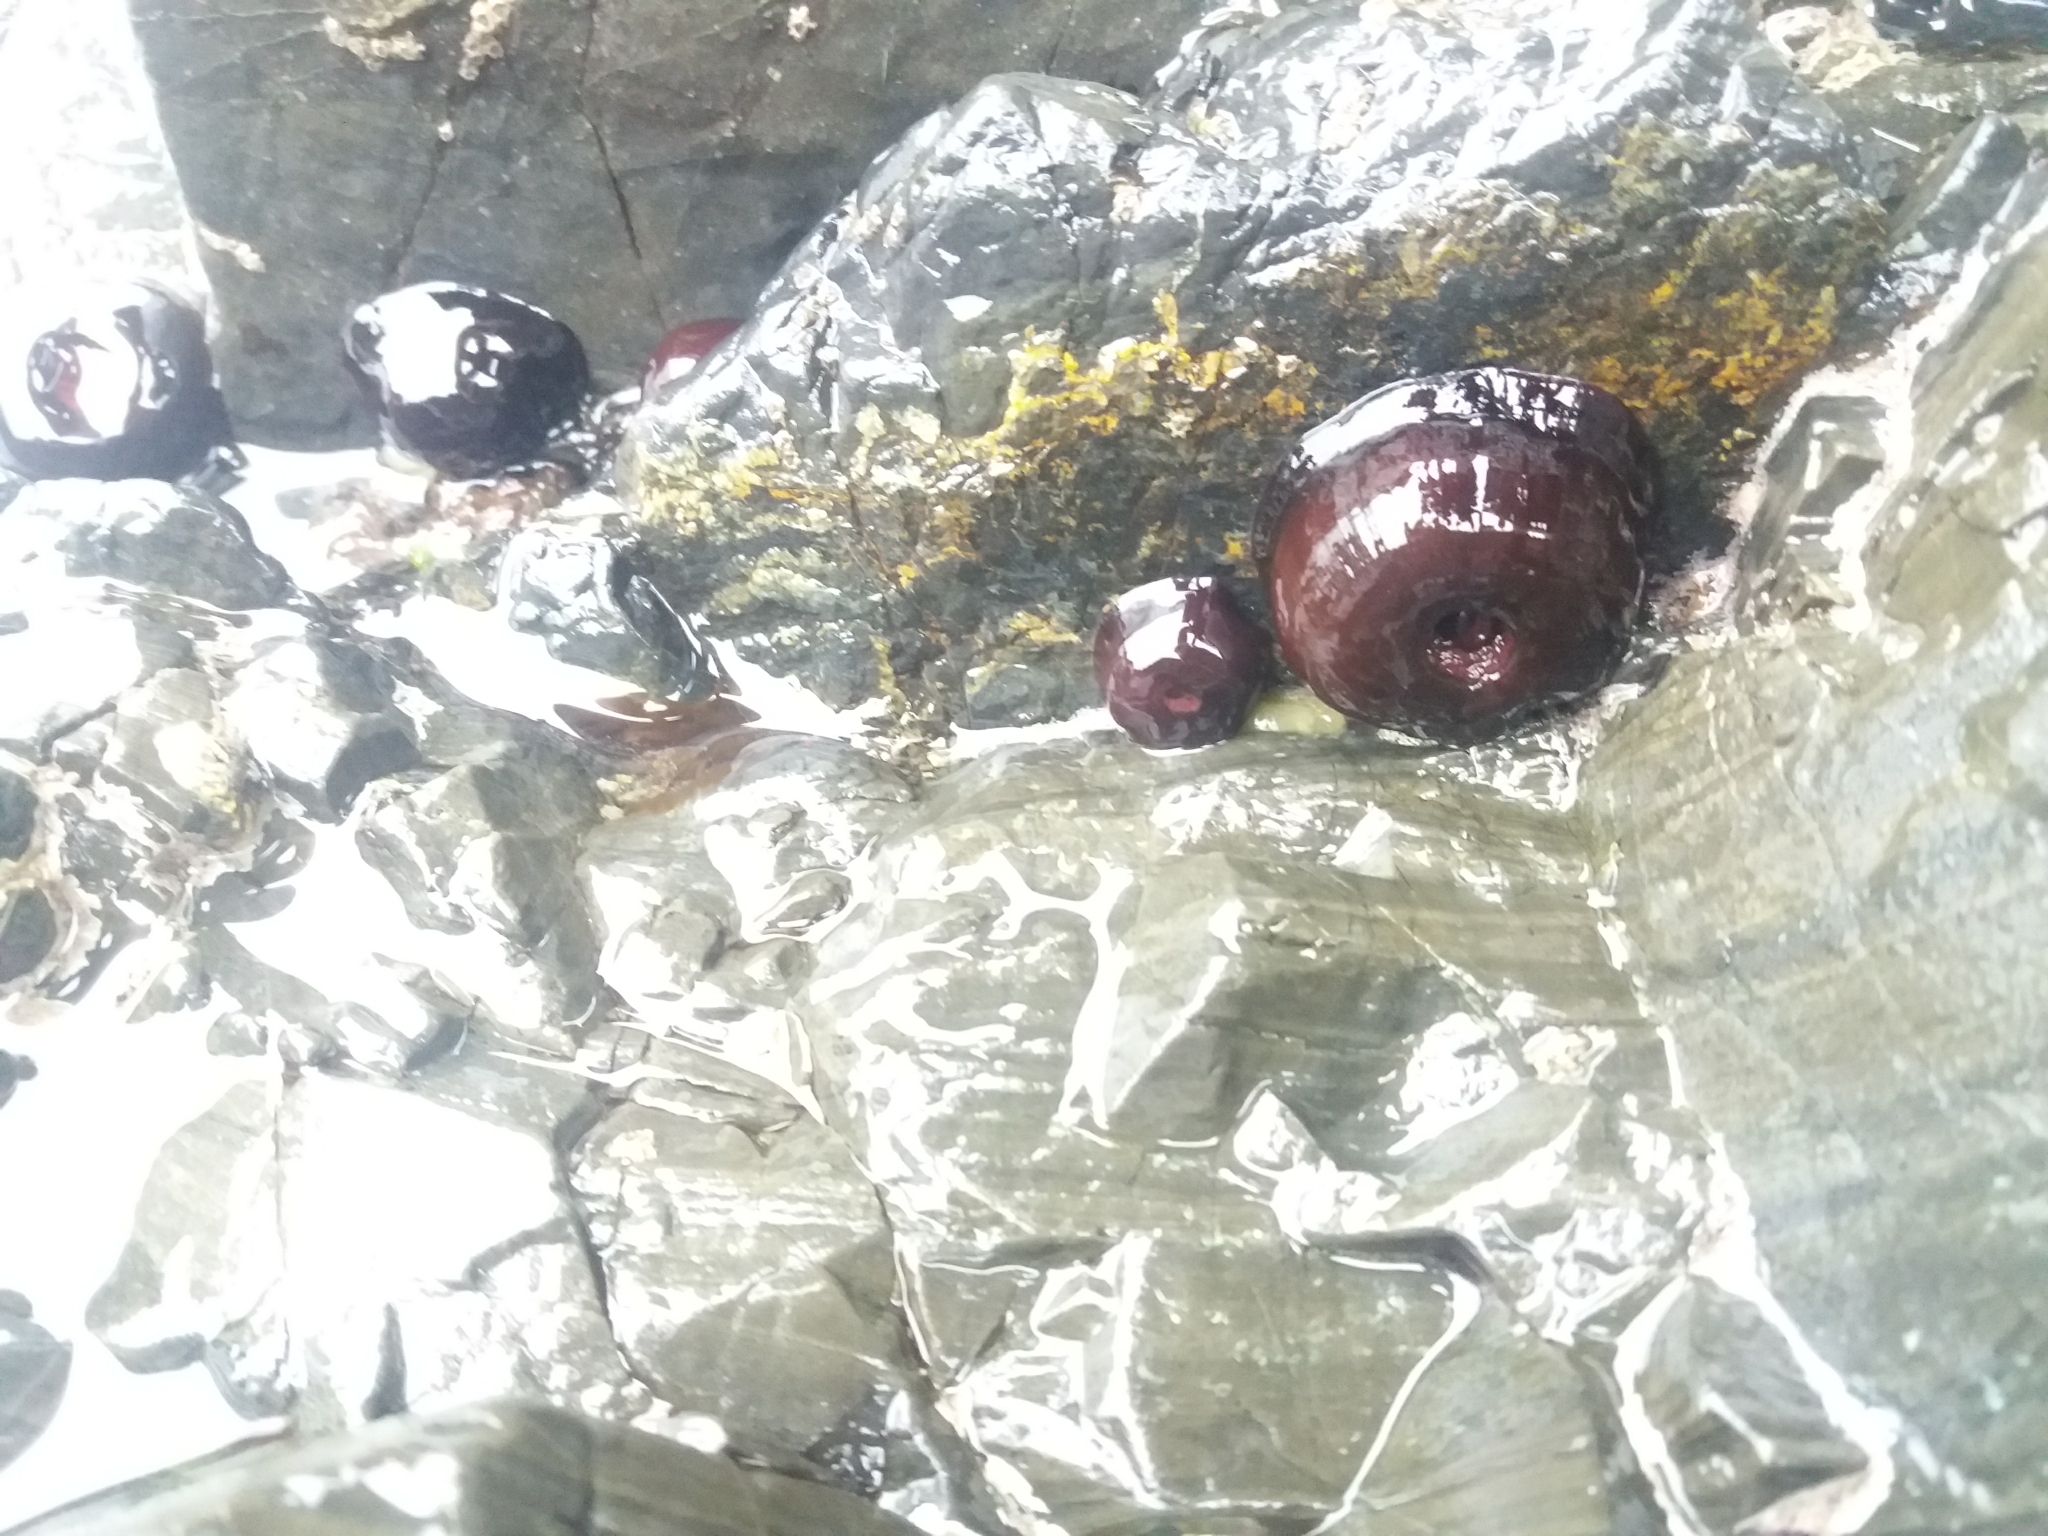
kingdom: Animalia
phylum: Cnidaria
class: Anthozoa
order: Actiniaria
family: Actiniidae
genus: Actinia
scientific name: Actinia tenebrosa
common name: Waratah anemone
